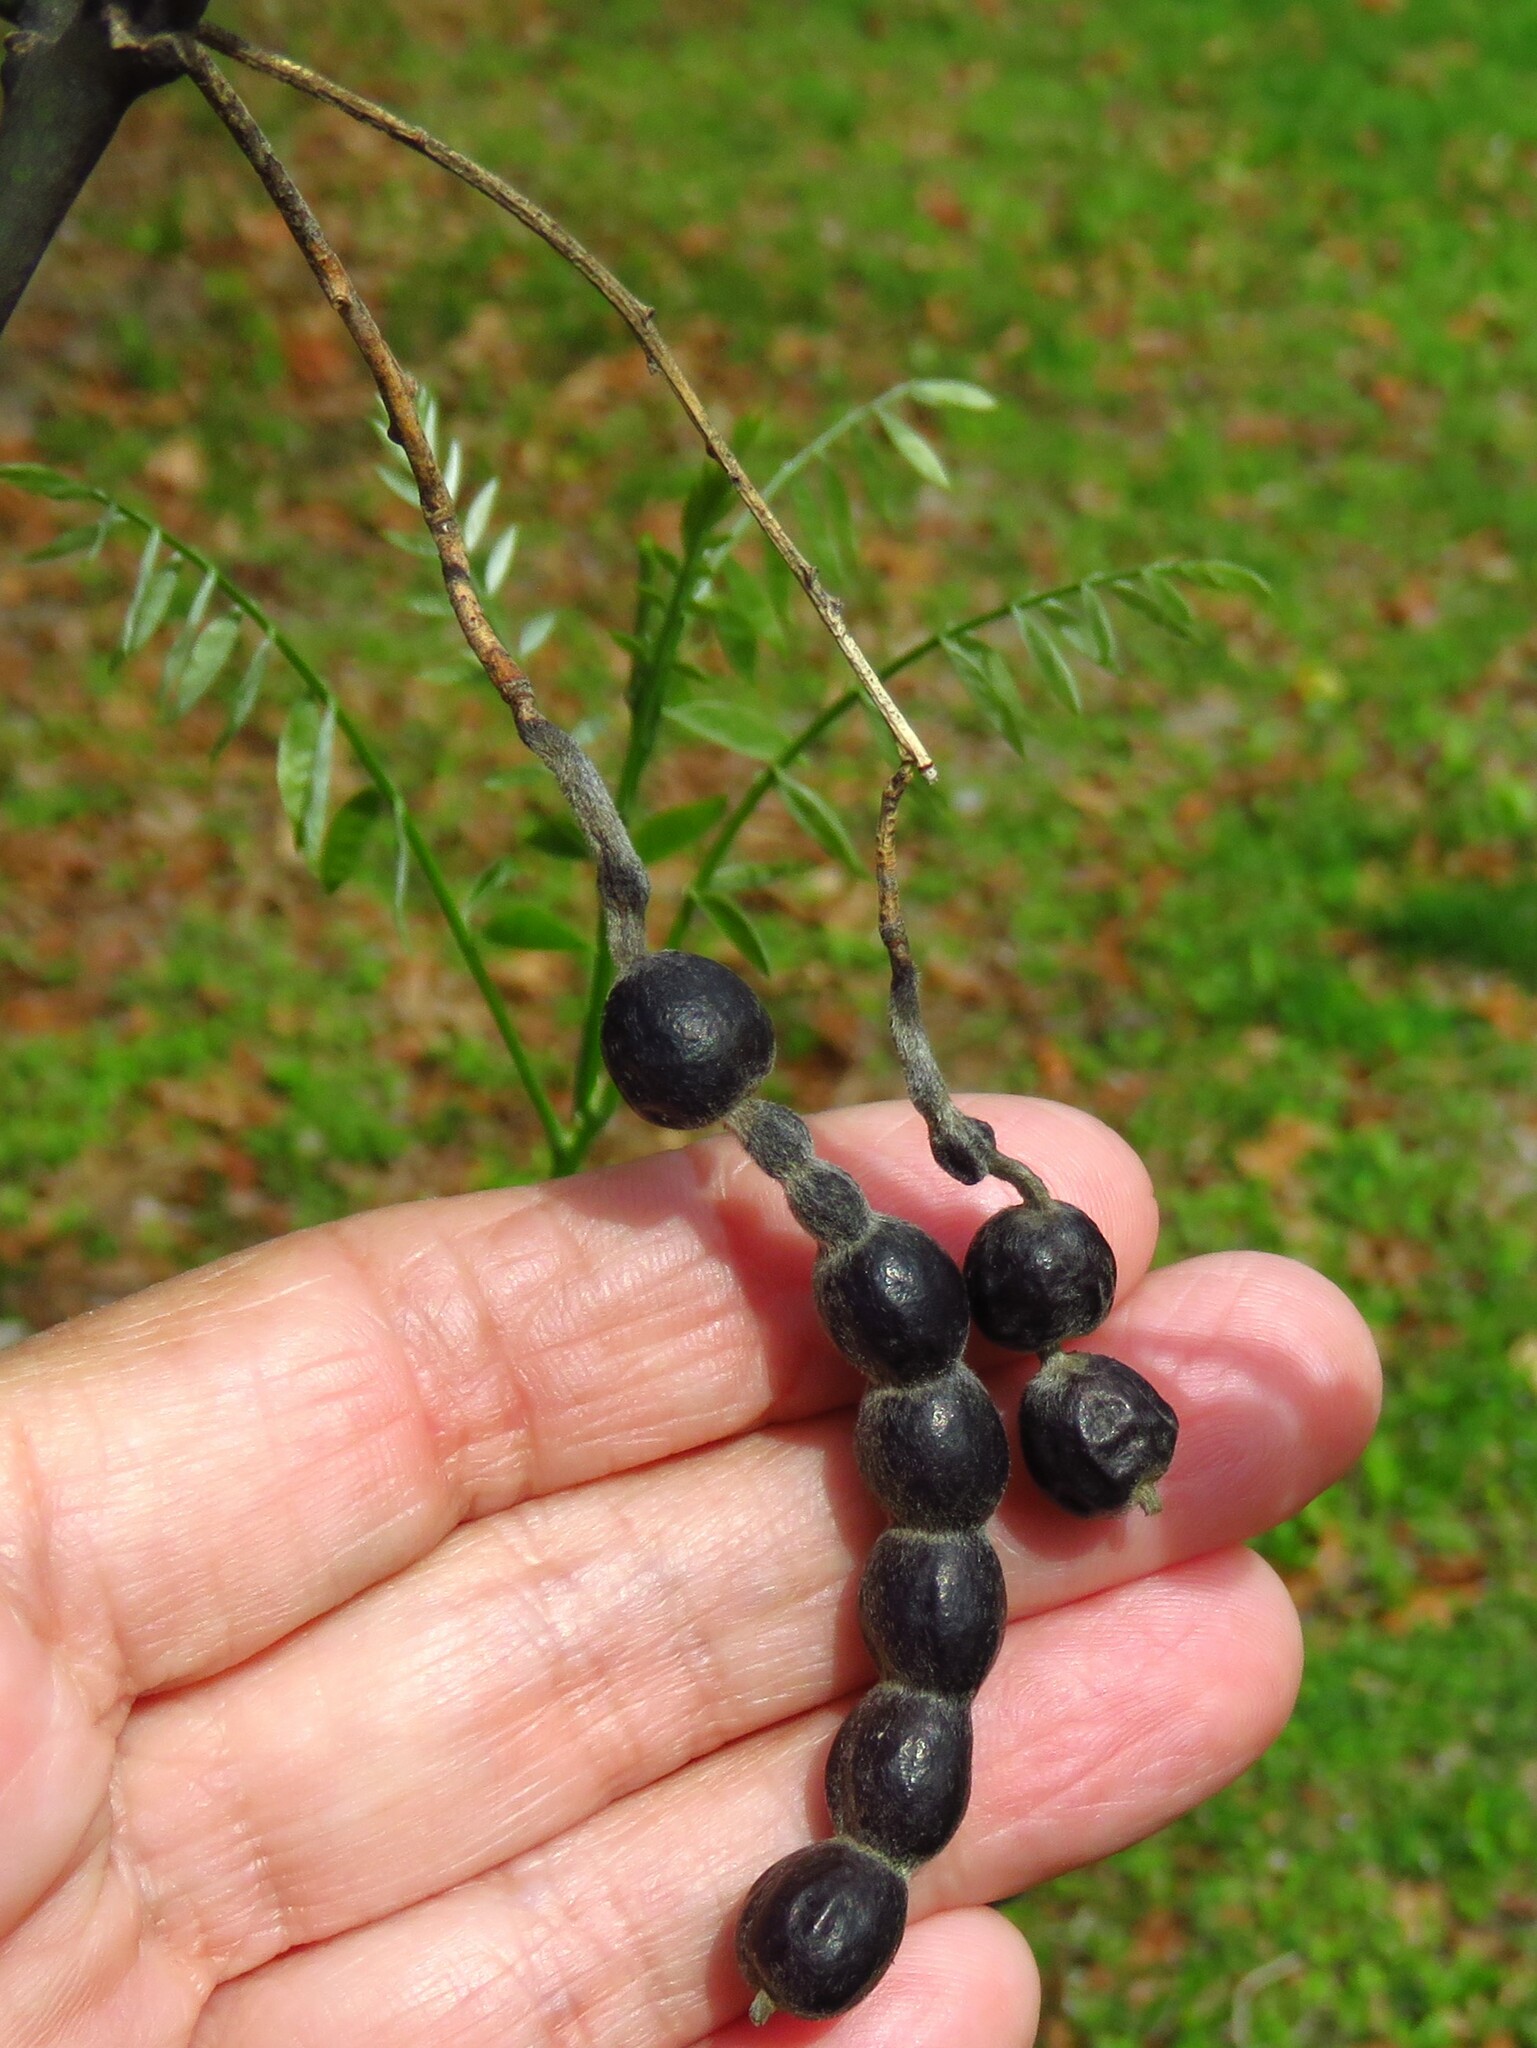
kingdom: Plantae
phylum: Tracheophyta
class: Magnoliopsida
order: Fabales
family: Fabaceae
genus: Styphnolobium
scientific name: Styphnolobium affine
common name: Texas sophora
